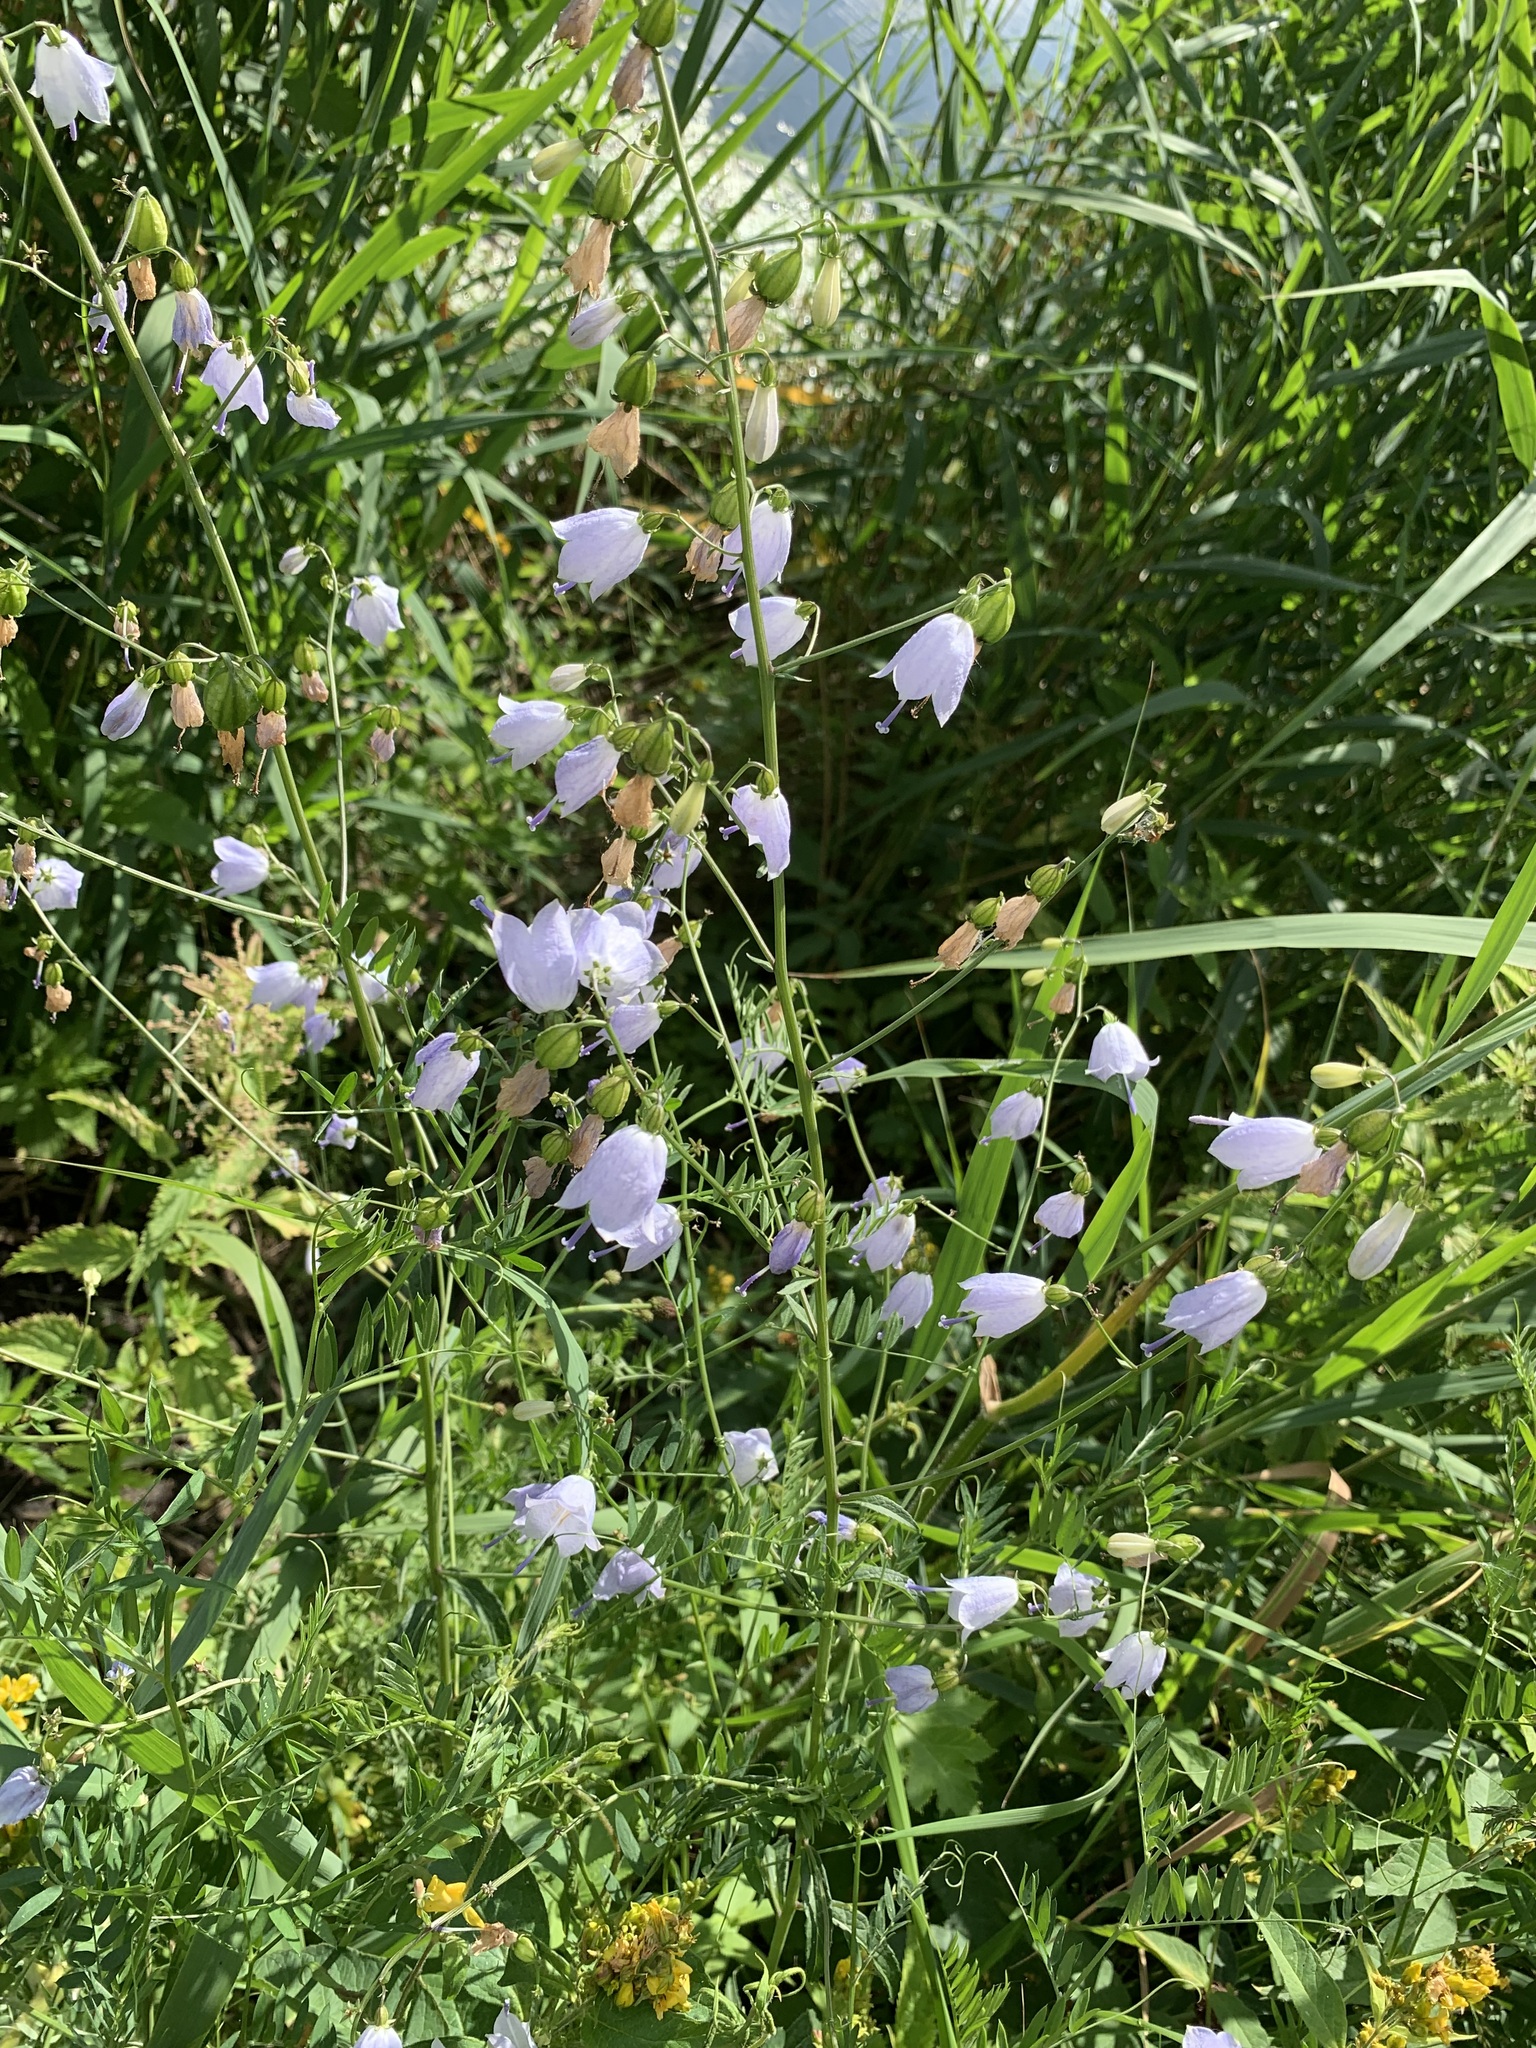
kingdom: Plantae
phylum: Tracheophyta
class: Magnoliopsida
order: Asterales
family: Campanulaceae
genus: Adenophora
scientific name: Adenophora liliifolia
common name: Lilyleaf ladybells
